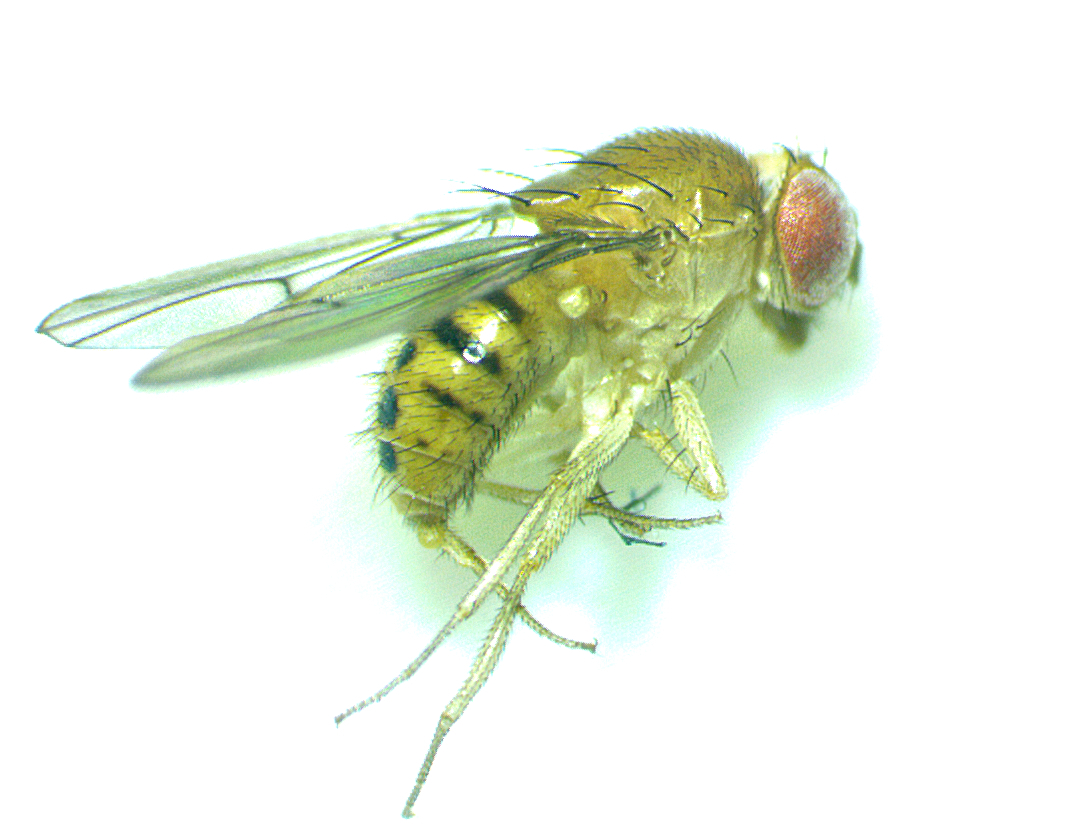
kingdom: Animalia
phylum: Arthropoda
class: Insecta
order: Diptera
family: Drosophilidae
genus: Drosophila
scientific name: Drosophila tripunctata
